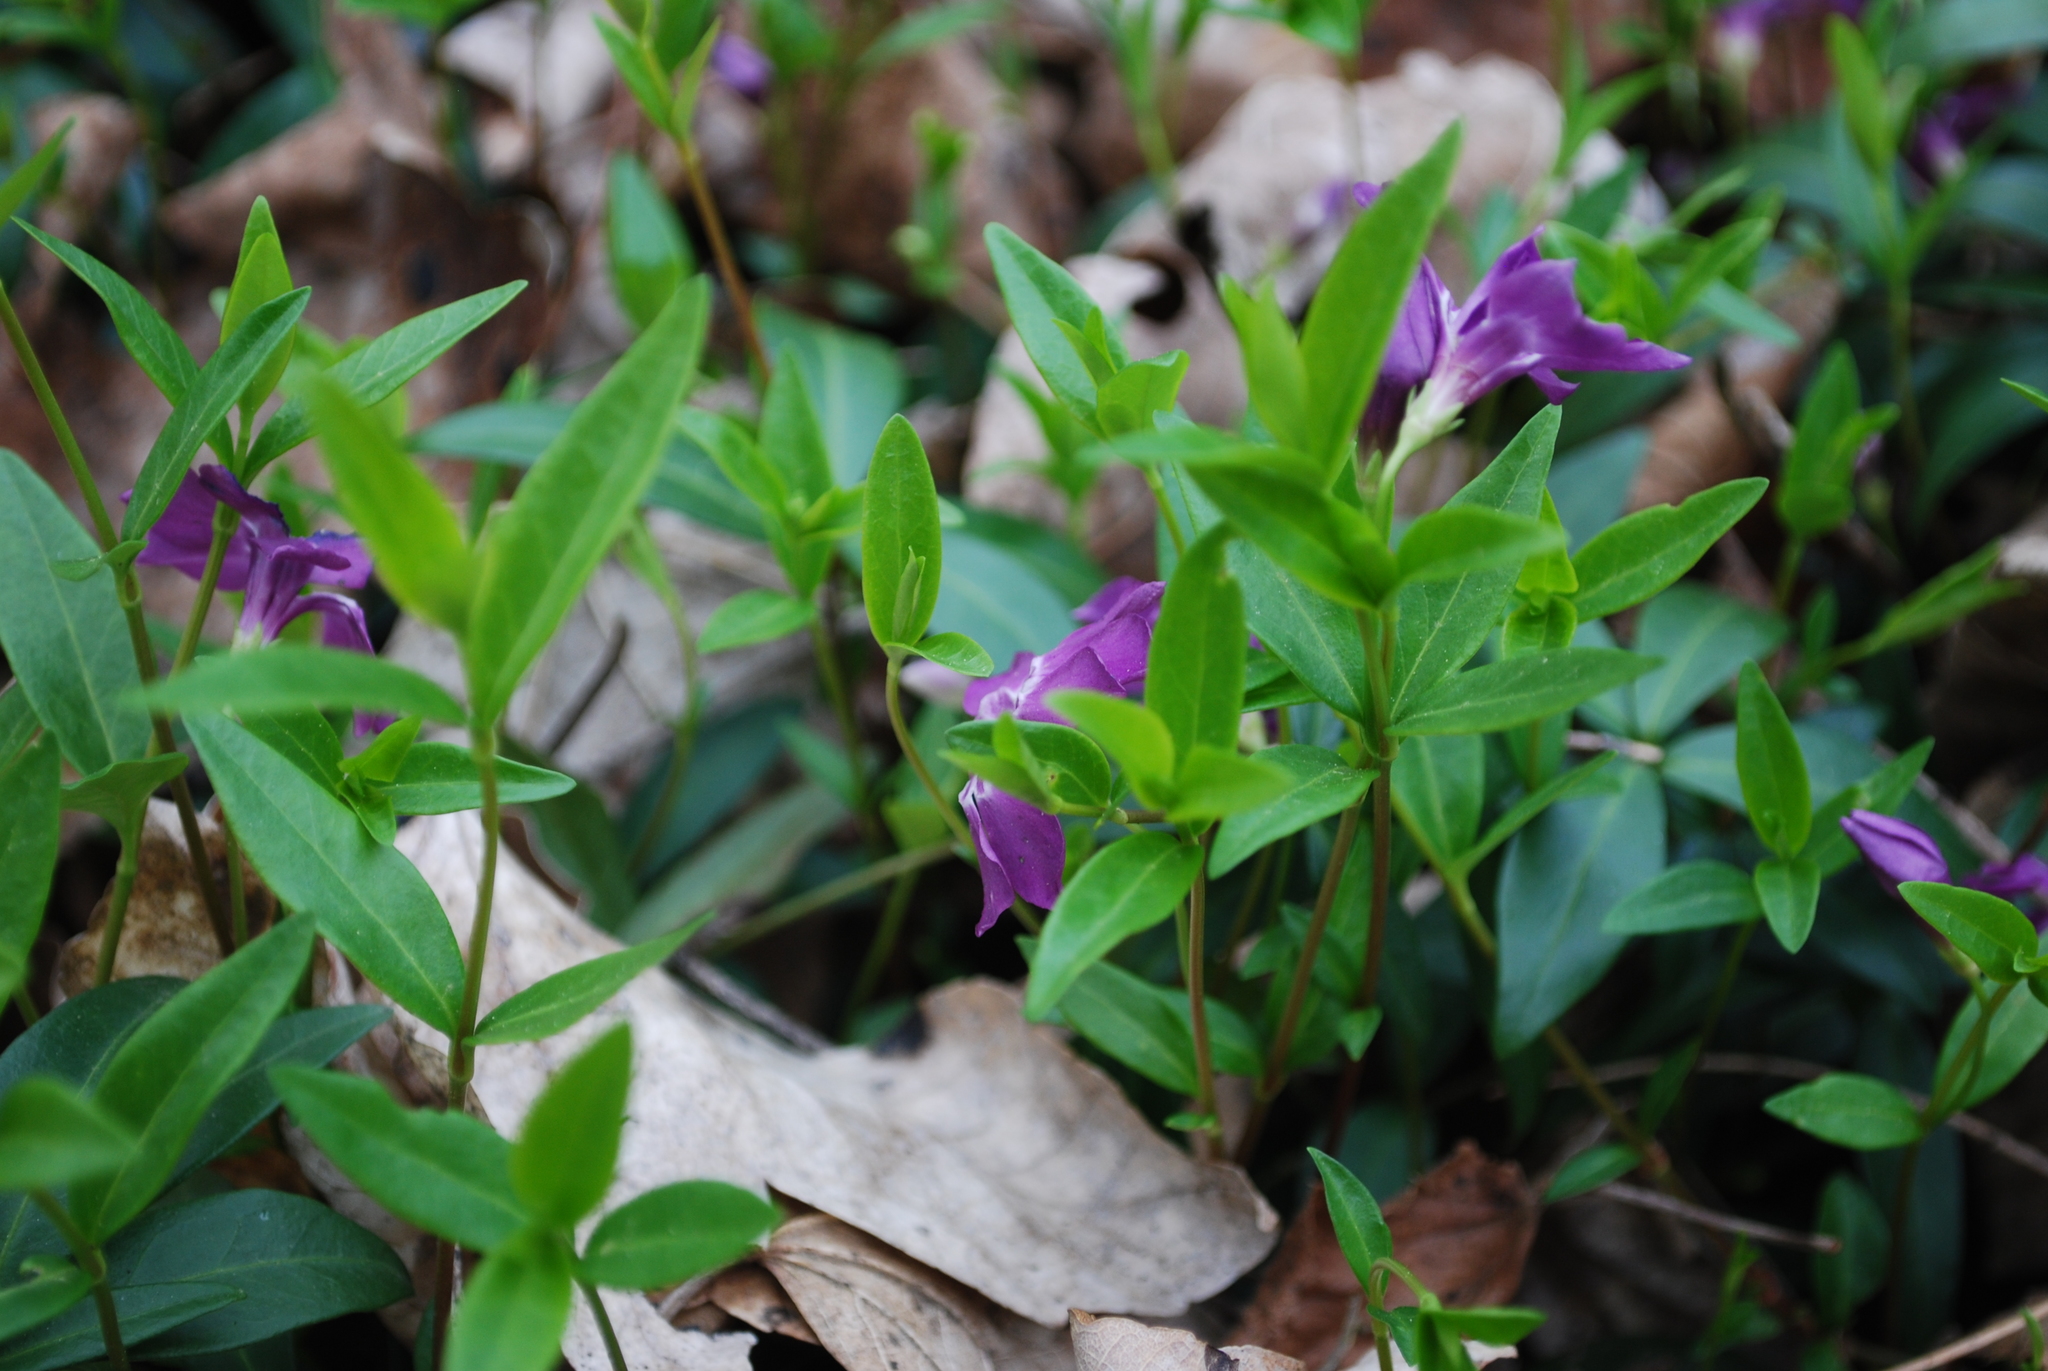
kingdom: Plantae
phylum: Tracheophyta
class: Magnoliopsida
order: Gentianales
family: Apocynaceae
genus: Vinca
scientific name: Vinca minor
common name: Lesser periwinkle
